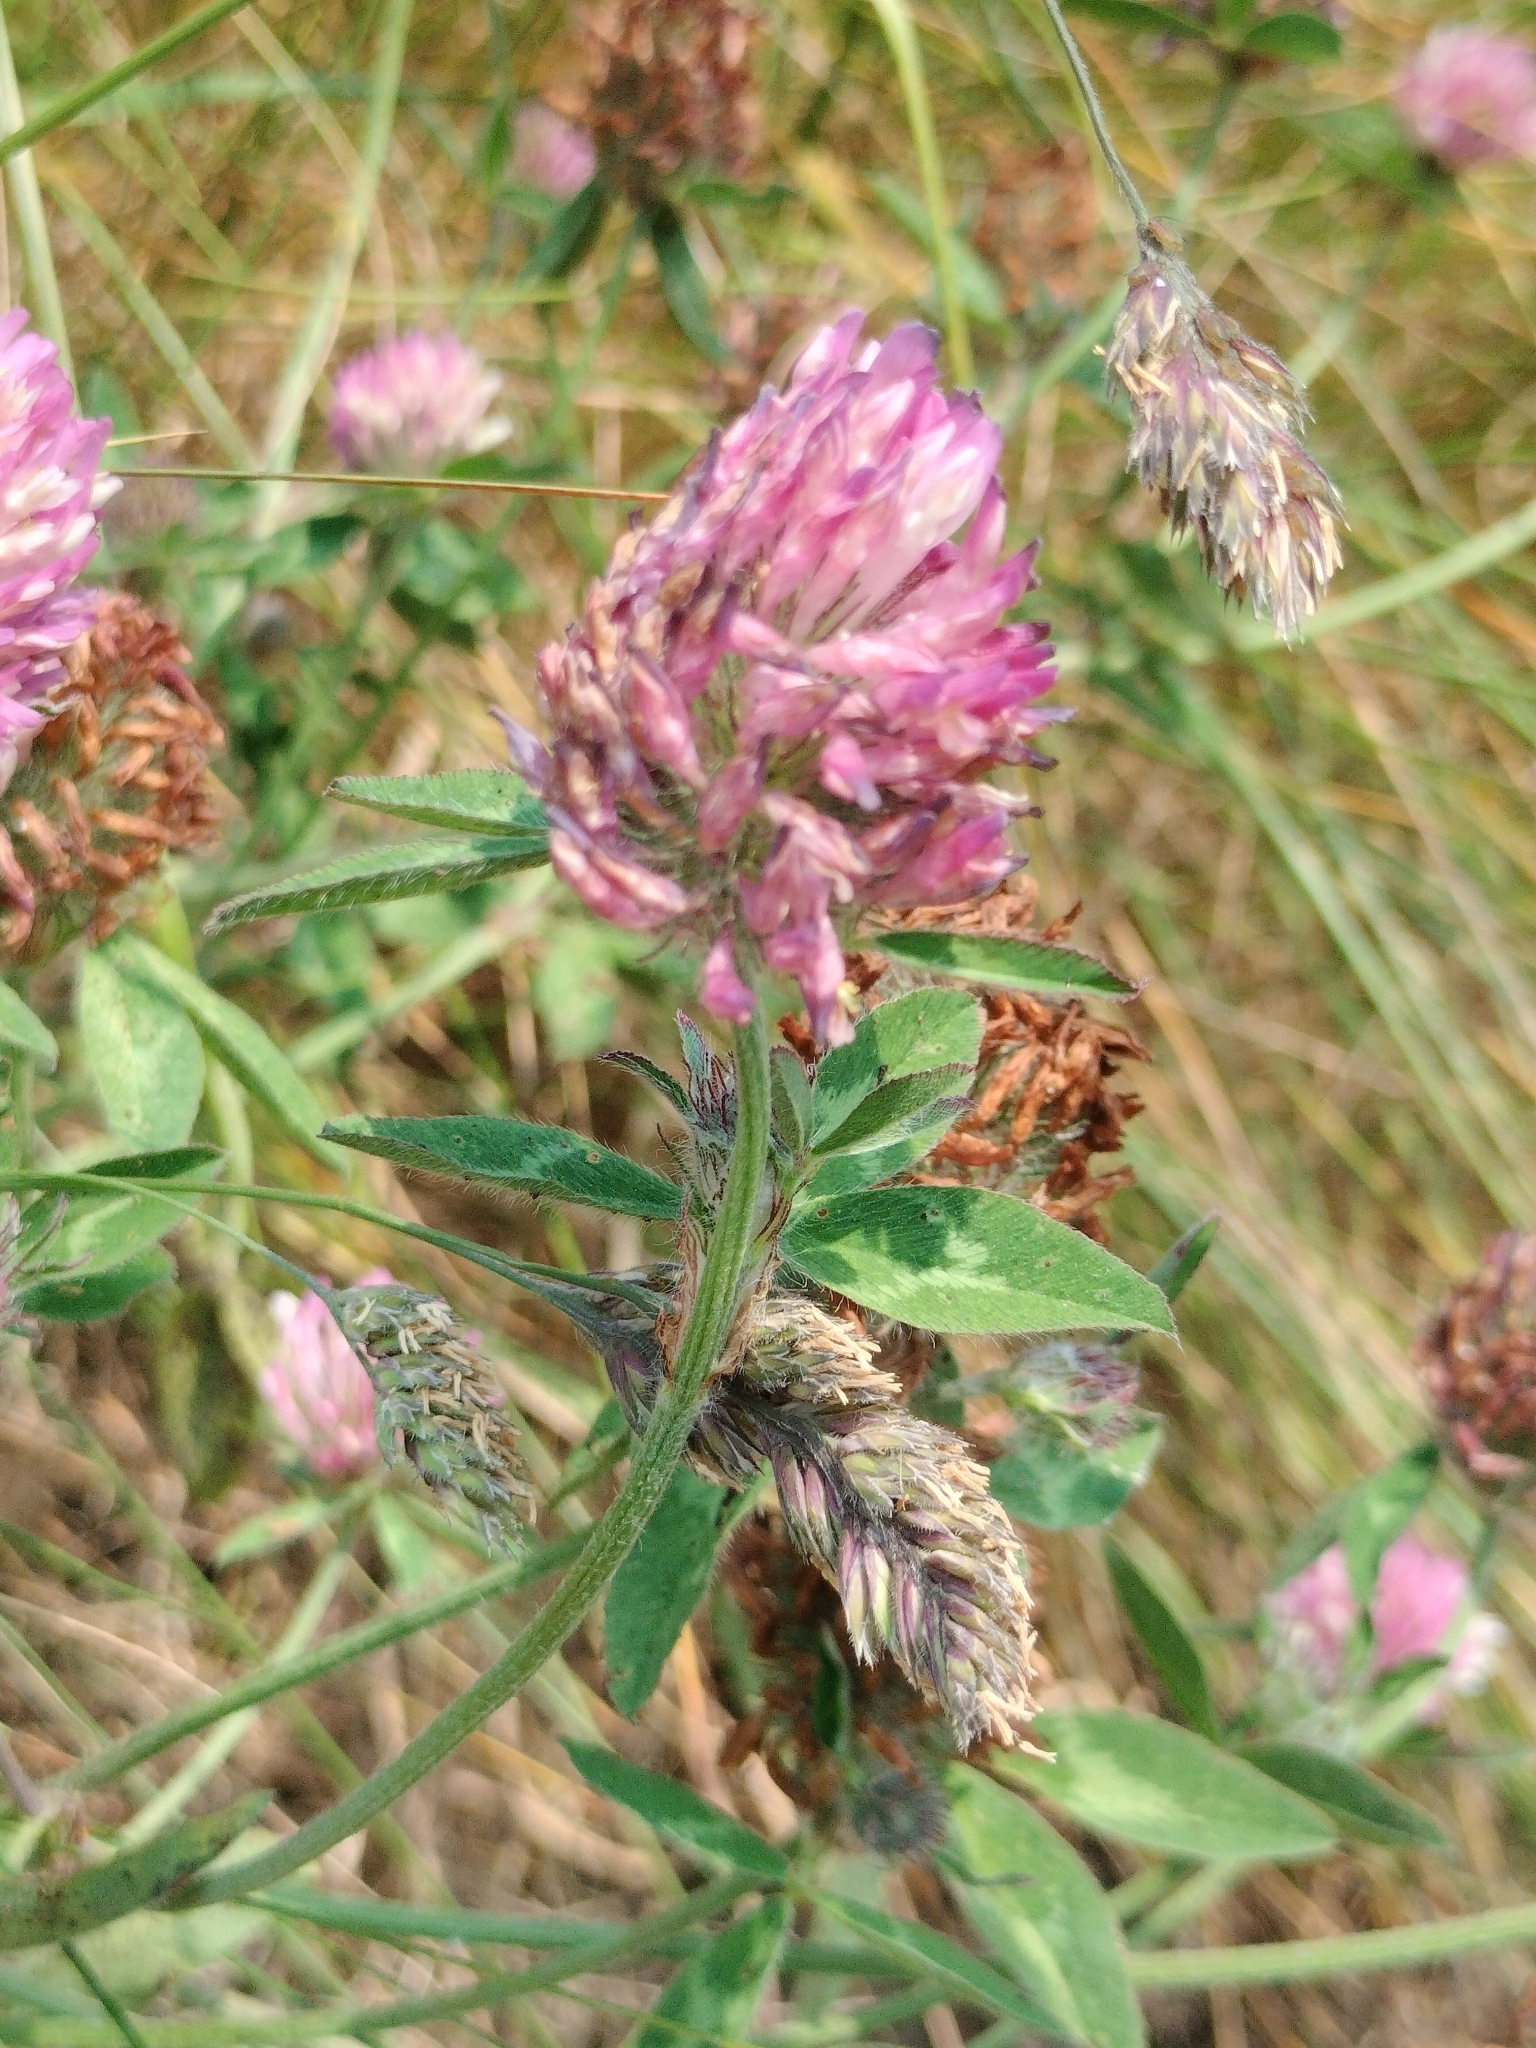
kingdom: Plantae
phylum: Tracheophyta
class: Magnoliopsida
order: Fabales
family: Fabaceae
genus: Trifolium
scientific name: Trifolium pratense
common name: Red clover
